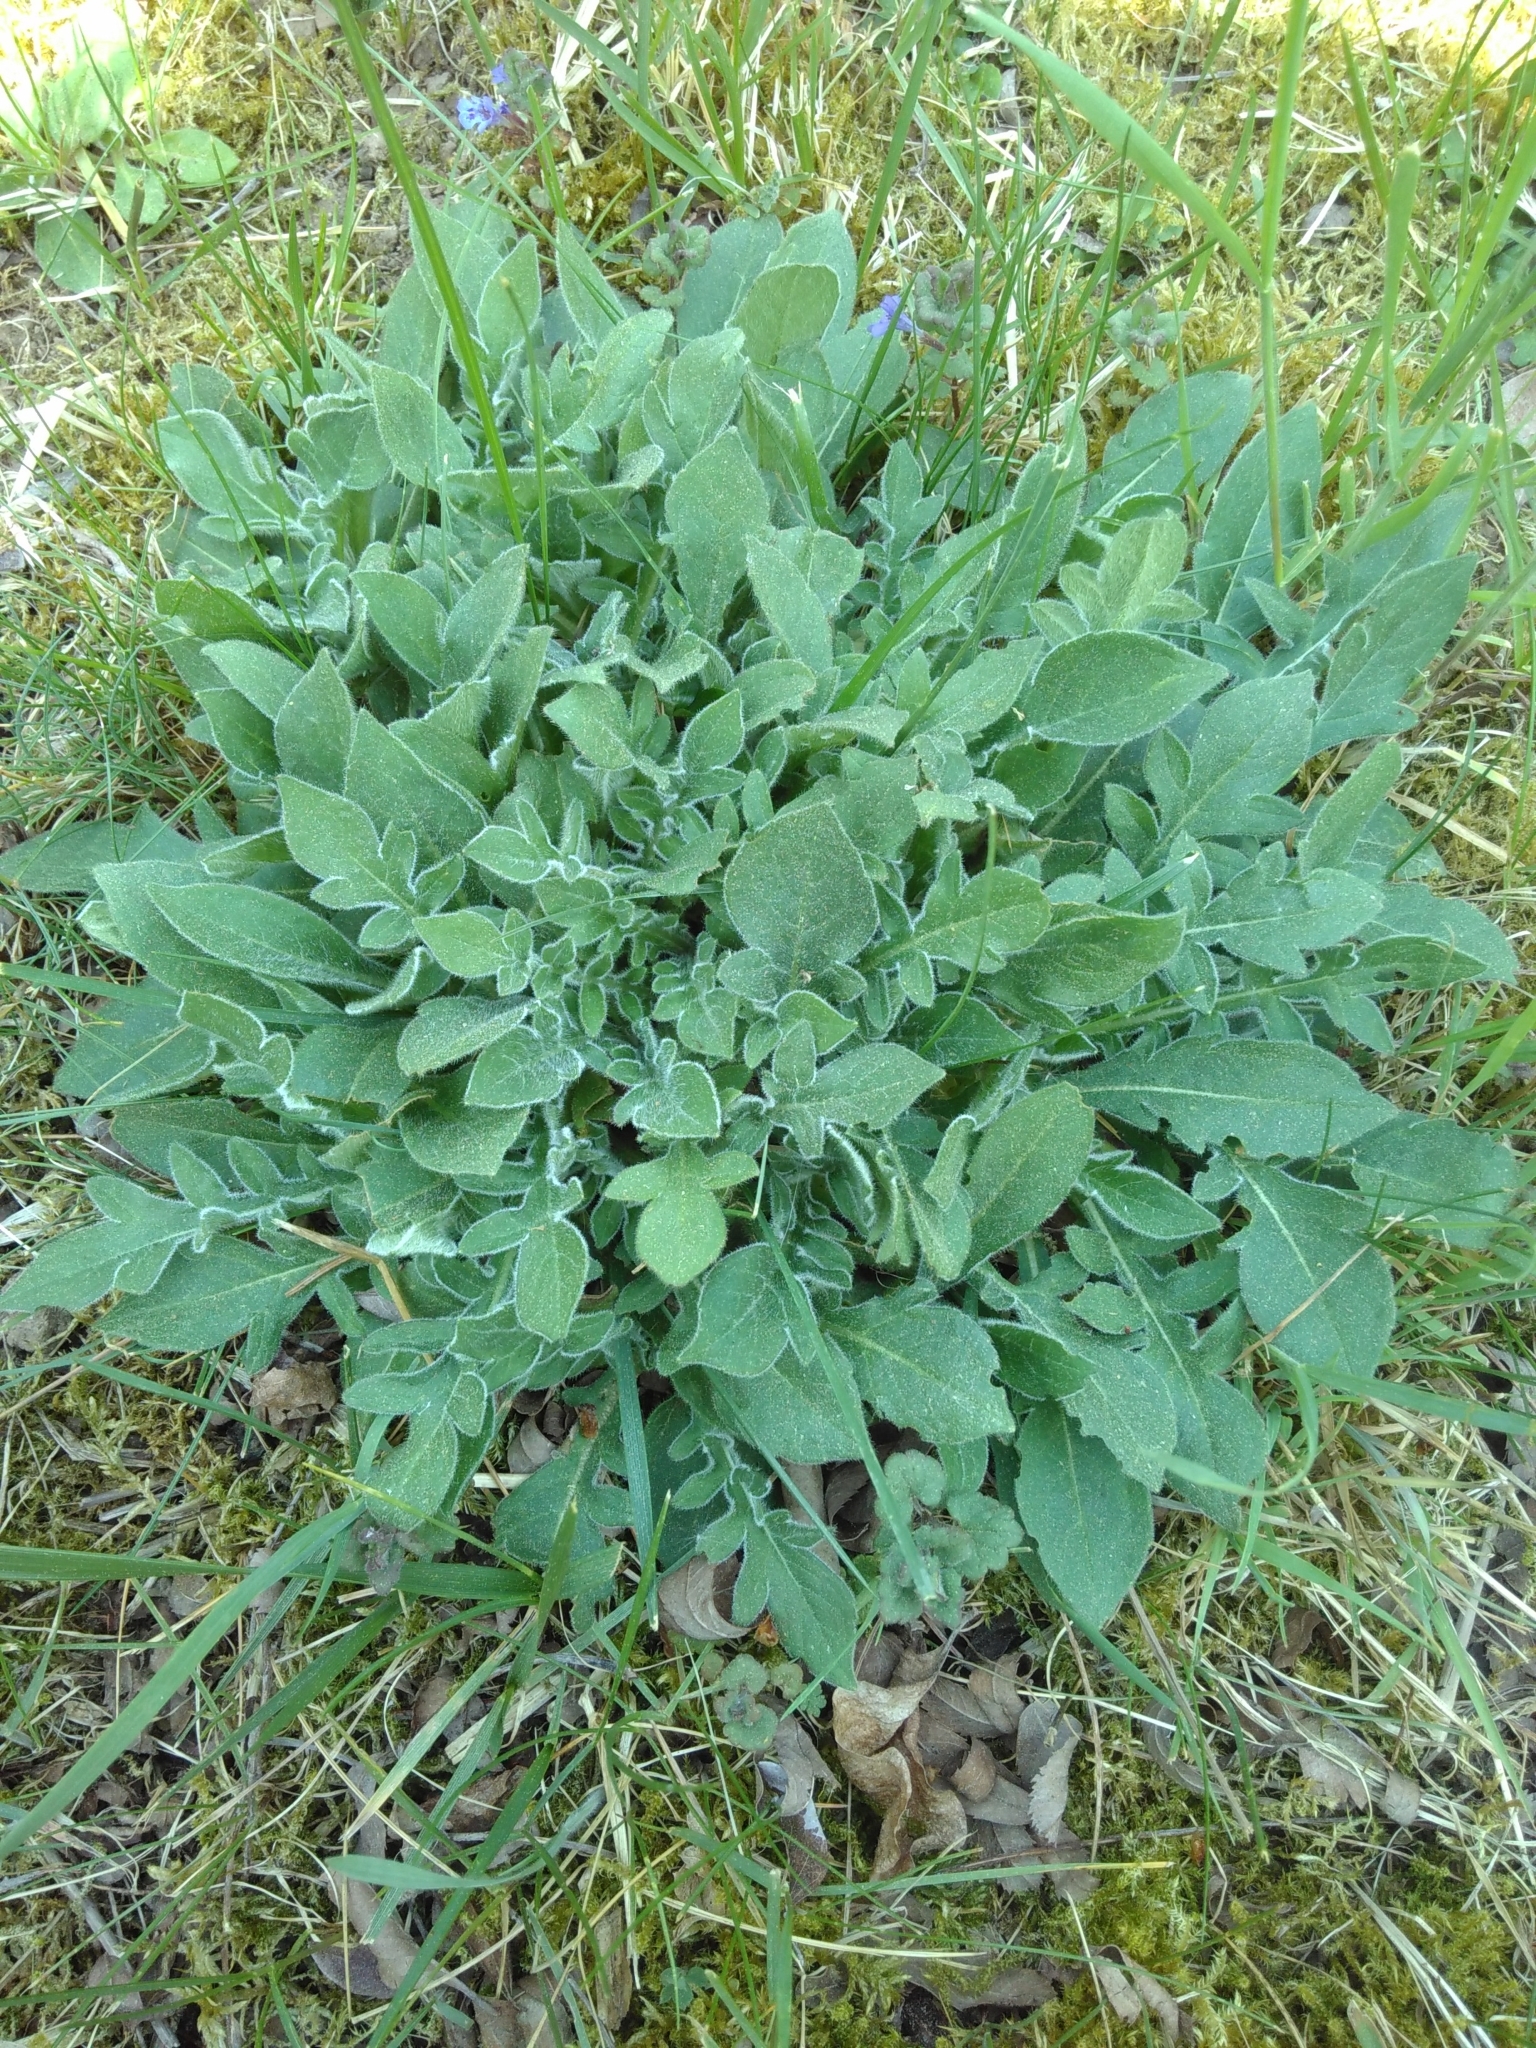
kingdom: Plantae
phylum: Tracheophyta
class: Magnoliopsida
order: Dipsacales
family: Caprifoliaceae
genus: Knautia
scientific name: Knautia arvensis
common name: Field scabiosa
